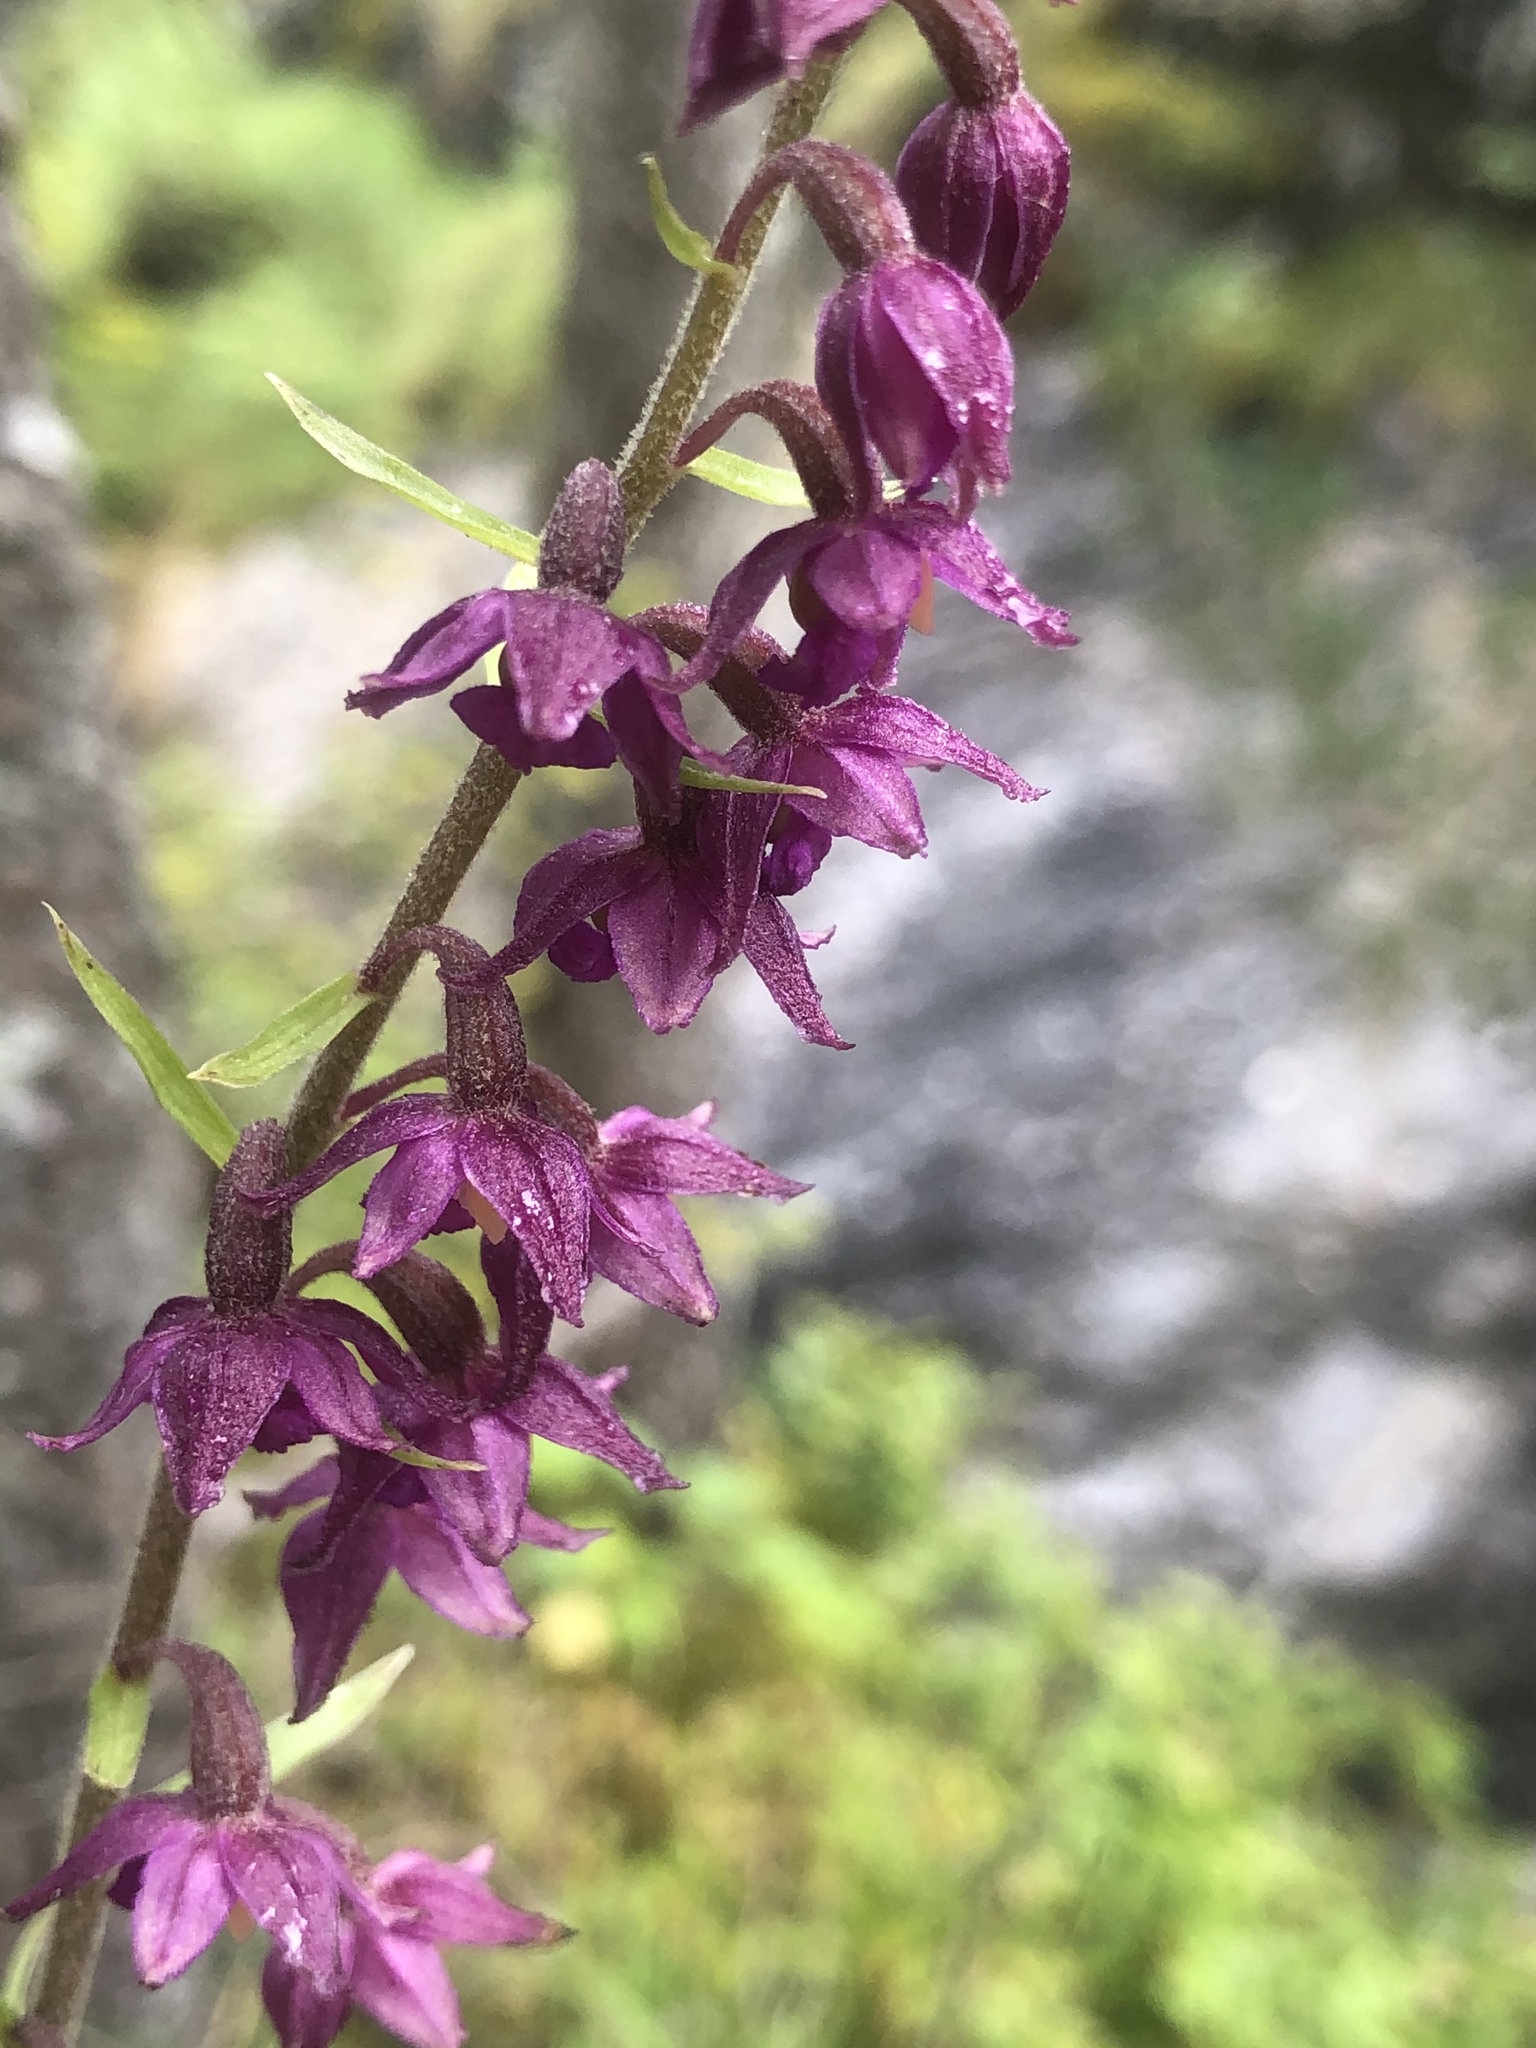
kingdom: Plantae
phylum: Tracheophyta
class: Liliopsida
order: Asparagales
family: Orchidaceae
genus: Epipactis
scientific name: Epipactis atrorubens
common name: Dark-red helleborine
